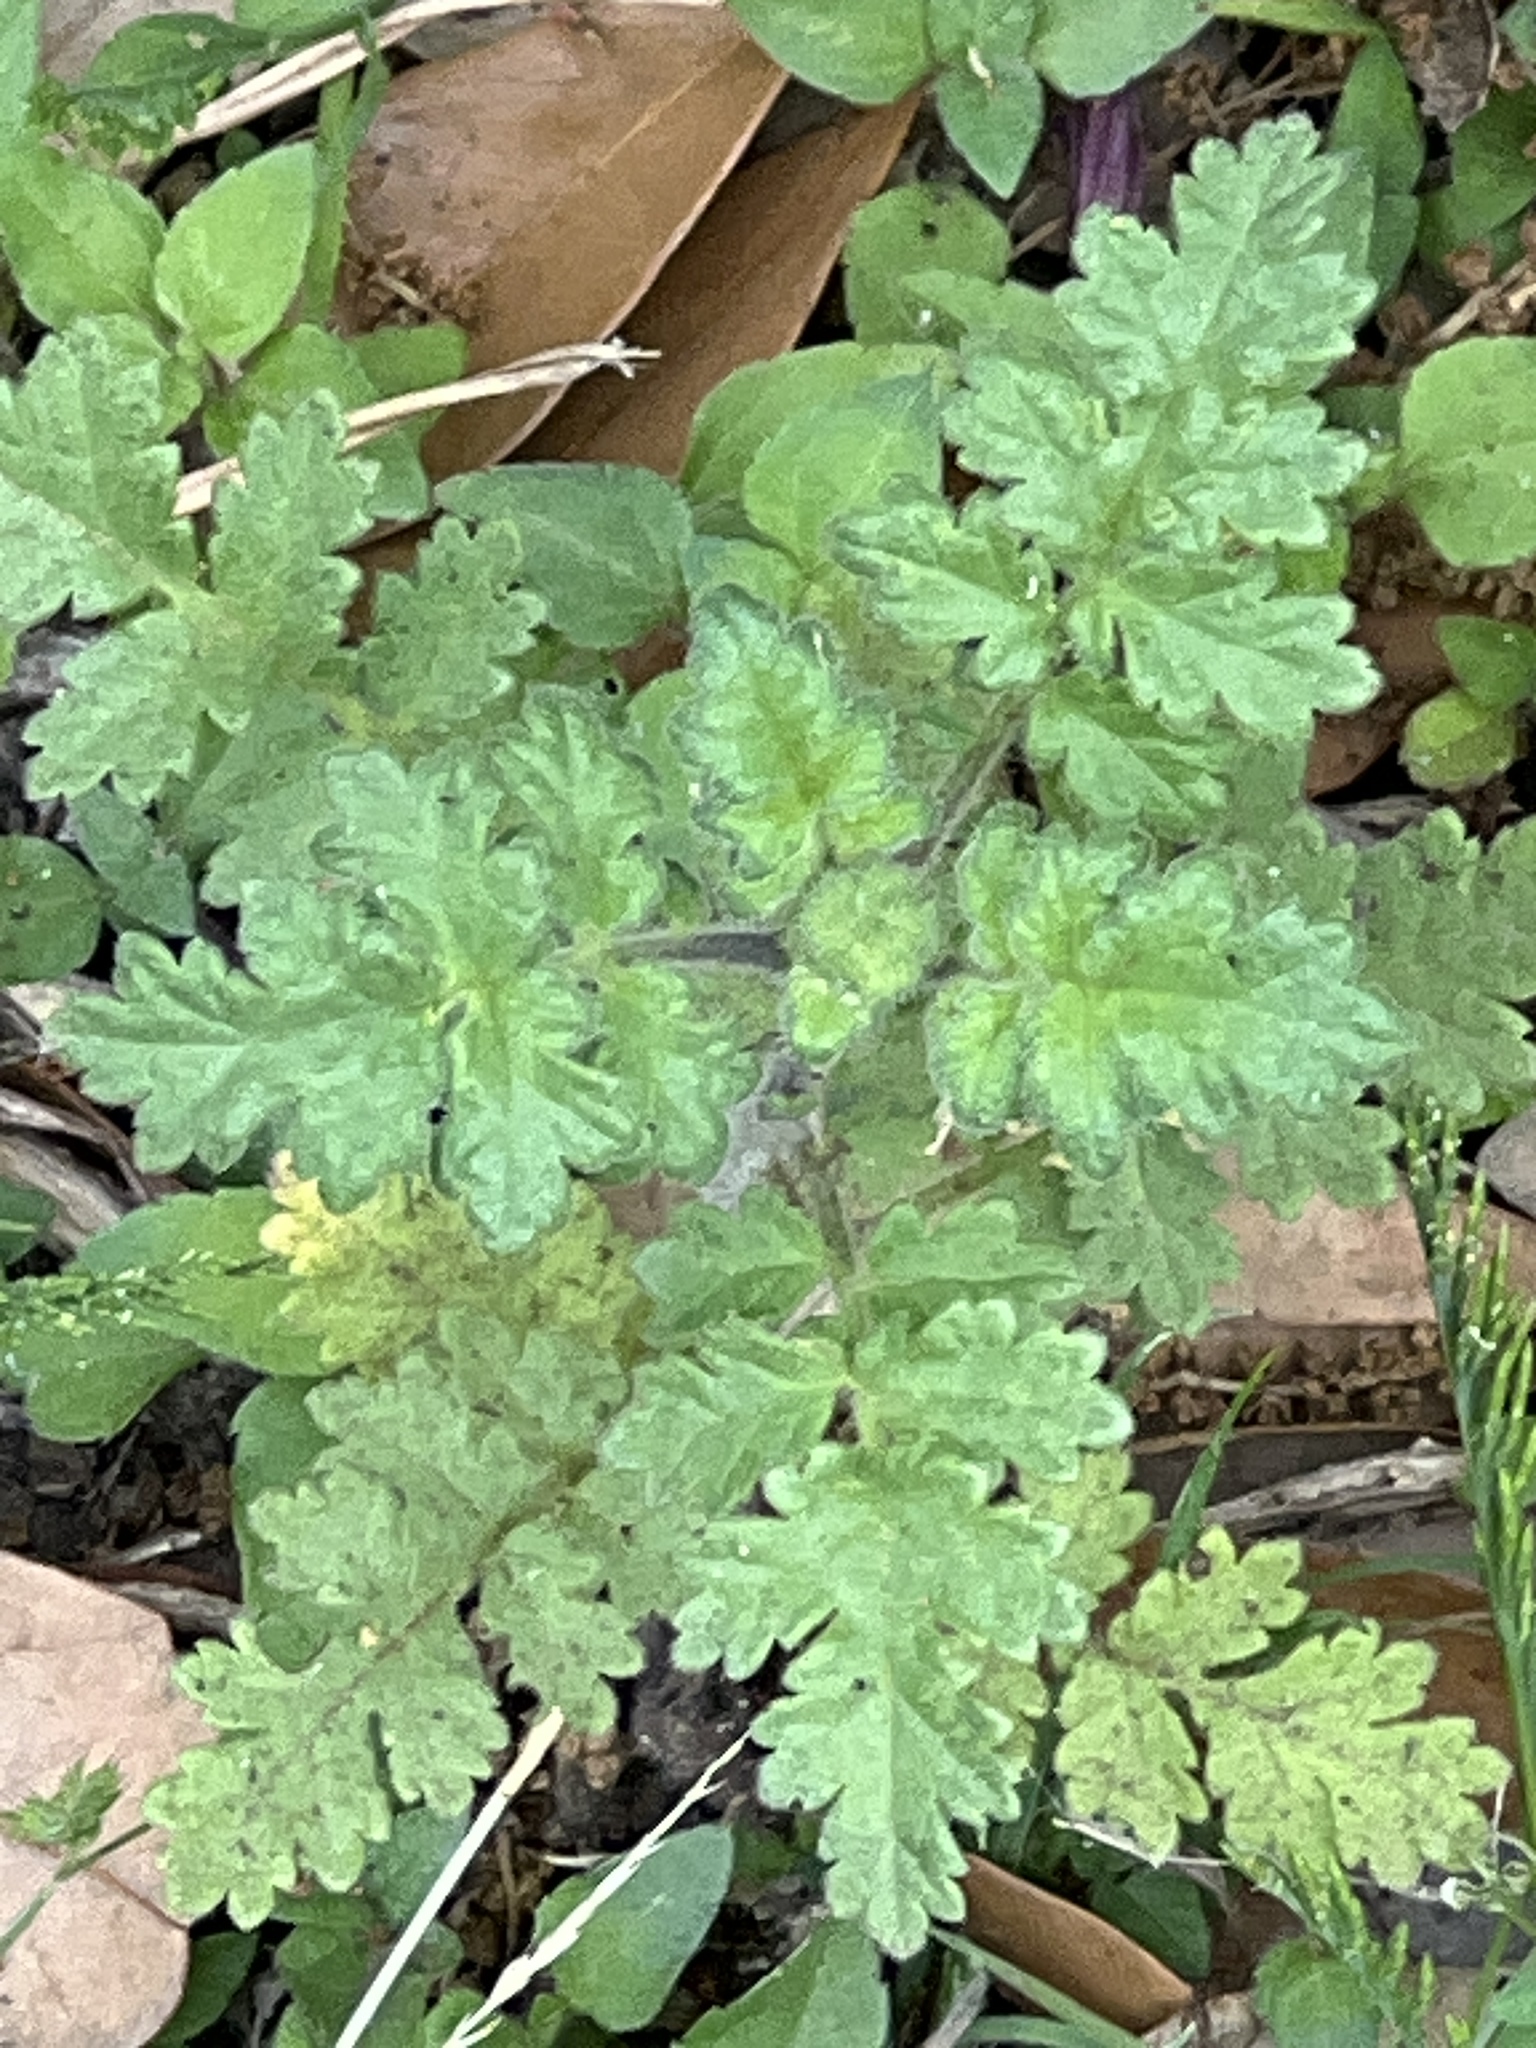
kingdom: Plantae
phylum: Tracheophyta
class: Magnoliopsida
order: Boraginales
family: Hydrophyllaceae
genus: Phacelia
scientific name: Phacelia congesta
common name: Blue curls
